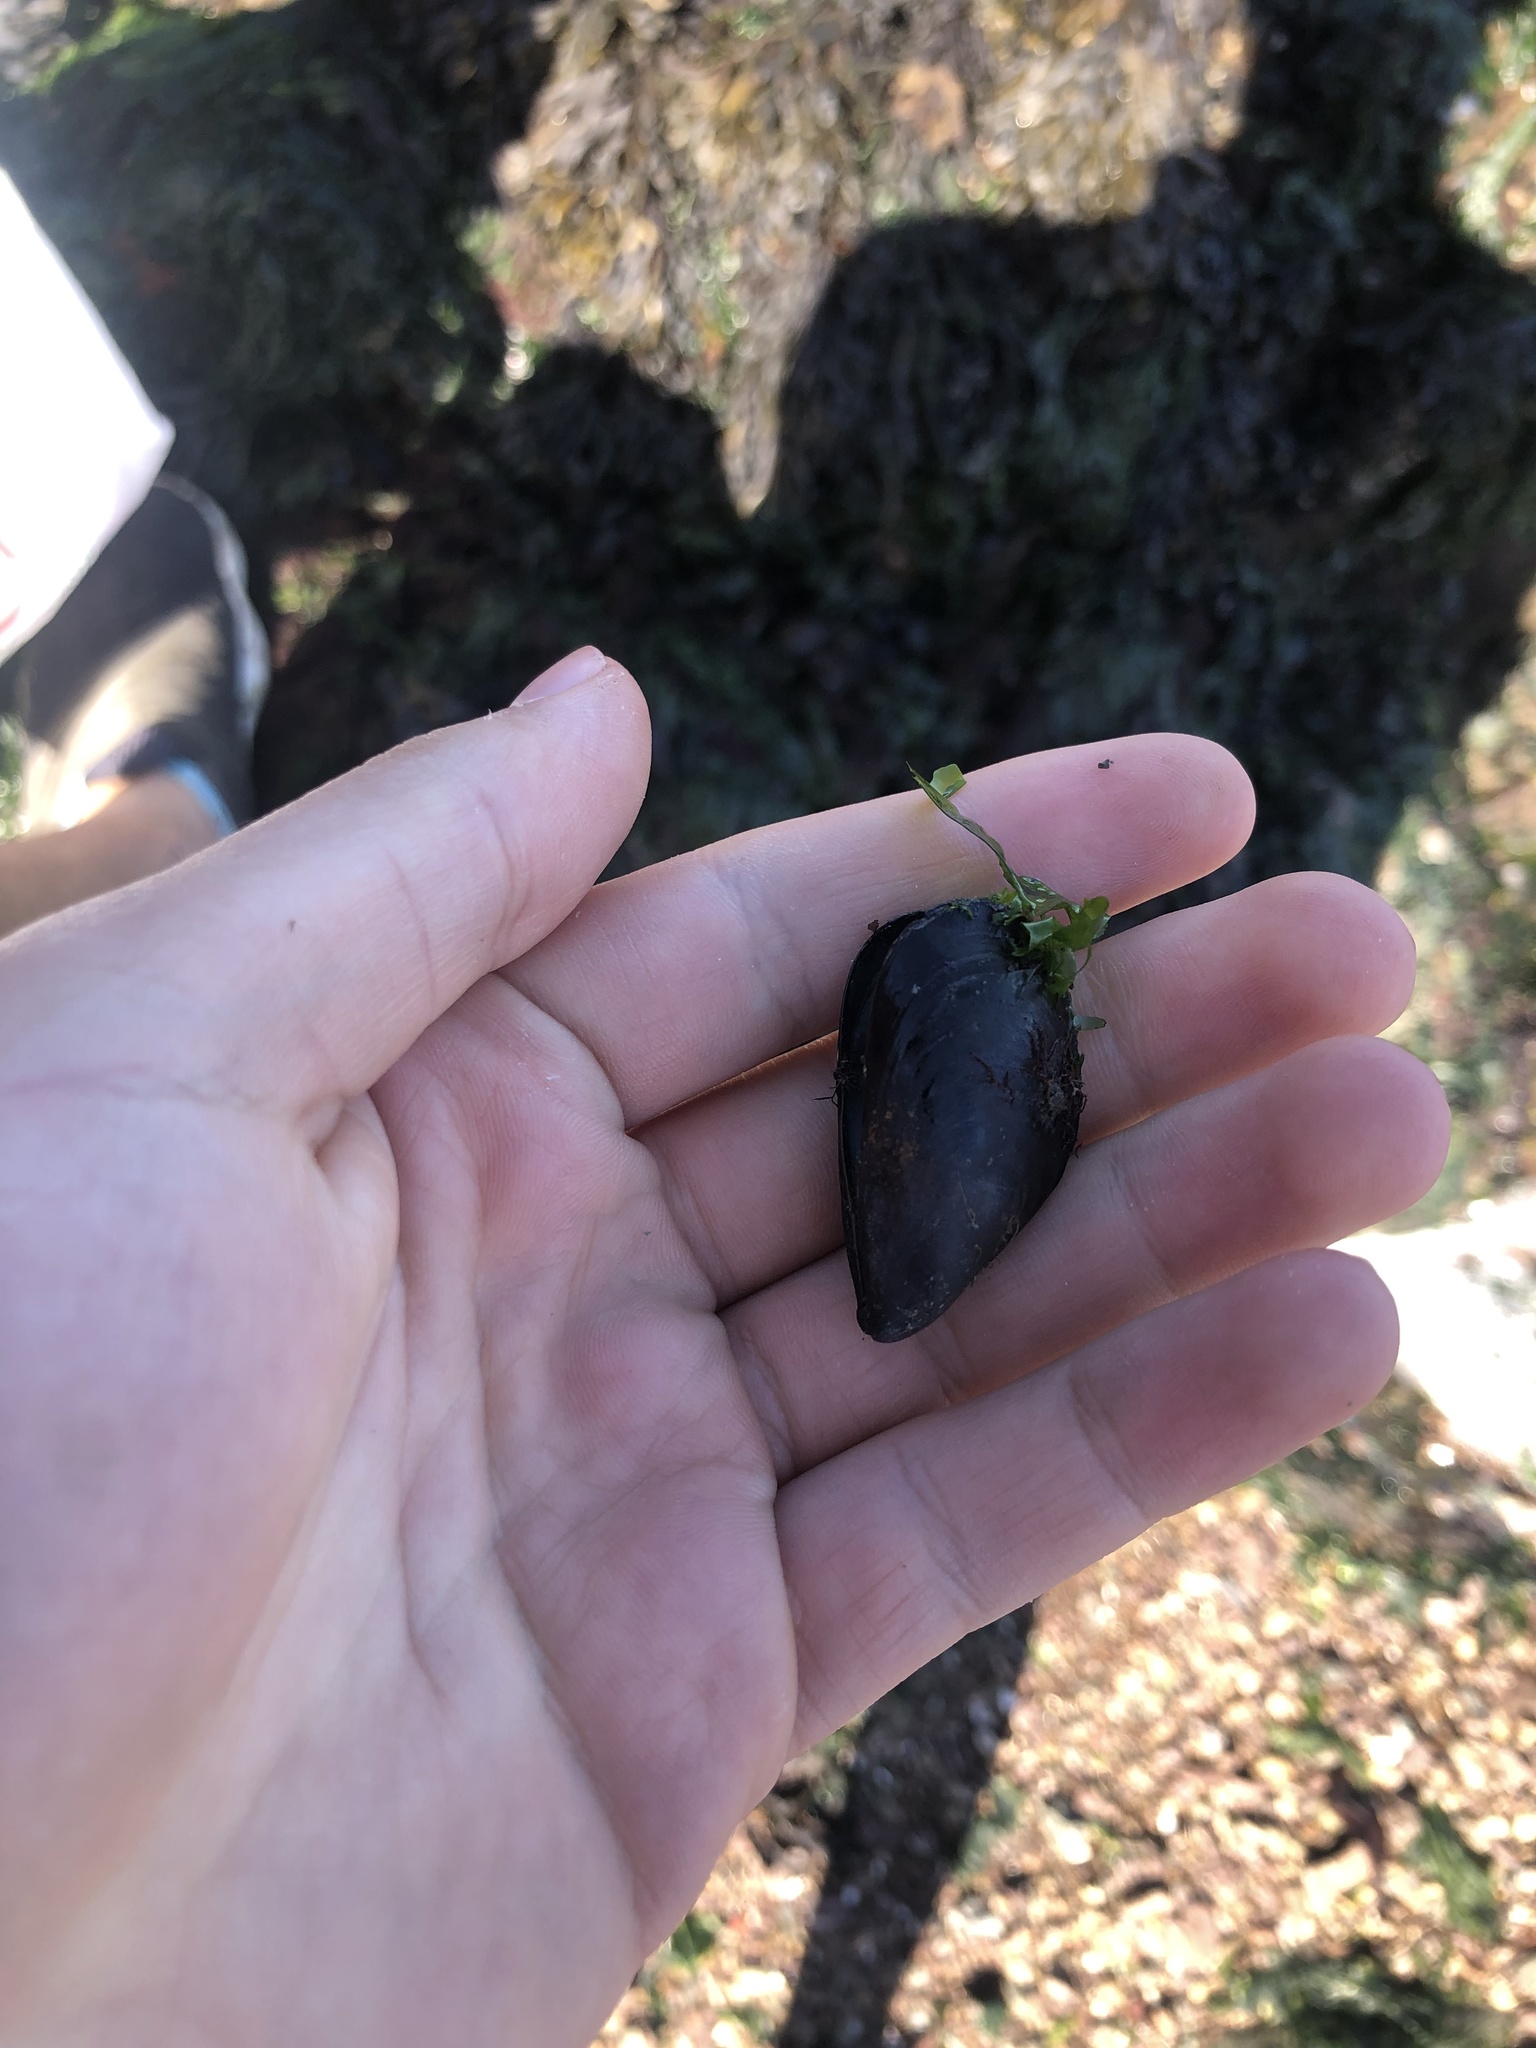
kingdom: Animalia
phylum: Mollusca
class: Bivalvia
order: Mytilida
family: Mytilidae
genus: Mytilus
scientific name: Mytilus
